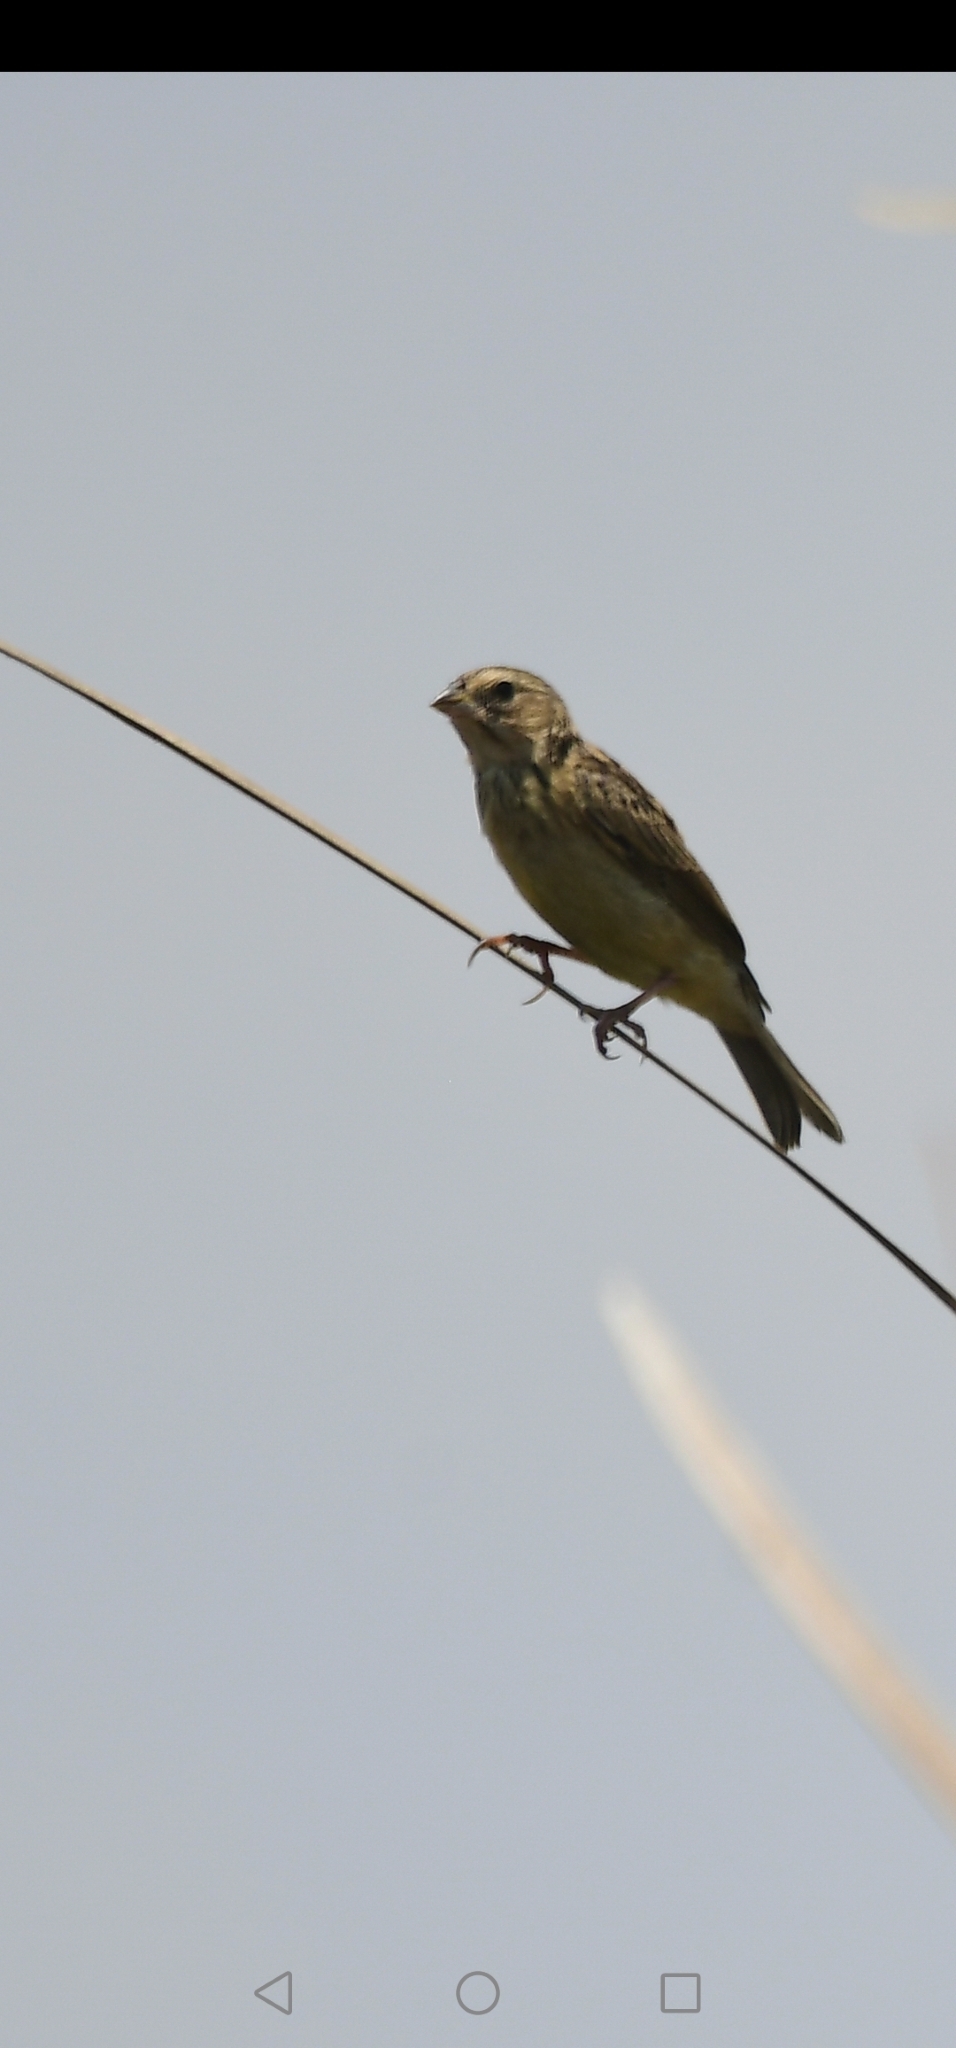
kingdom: Animalia
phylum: Chordata
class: Aves
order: Passeriformes
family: Thraupidae
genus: Sicalis
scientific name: Sicalis luteola
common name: Grassland yellow-finch
